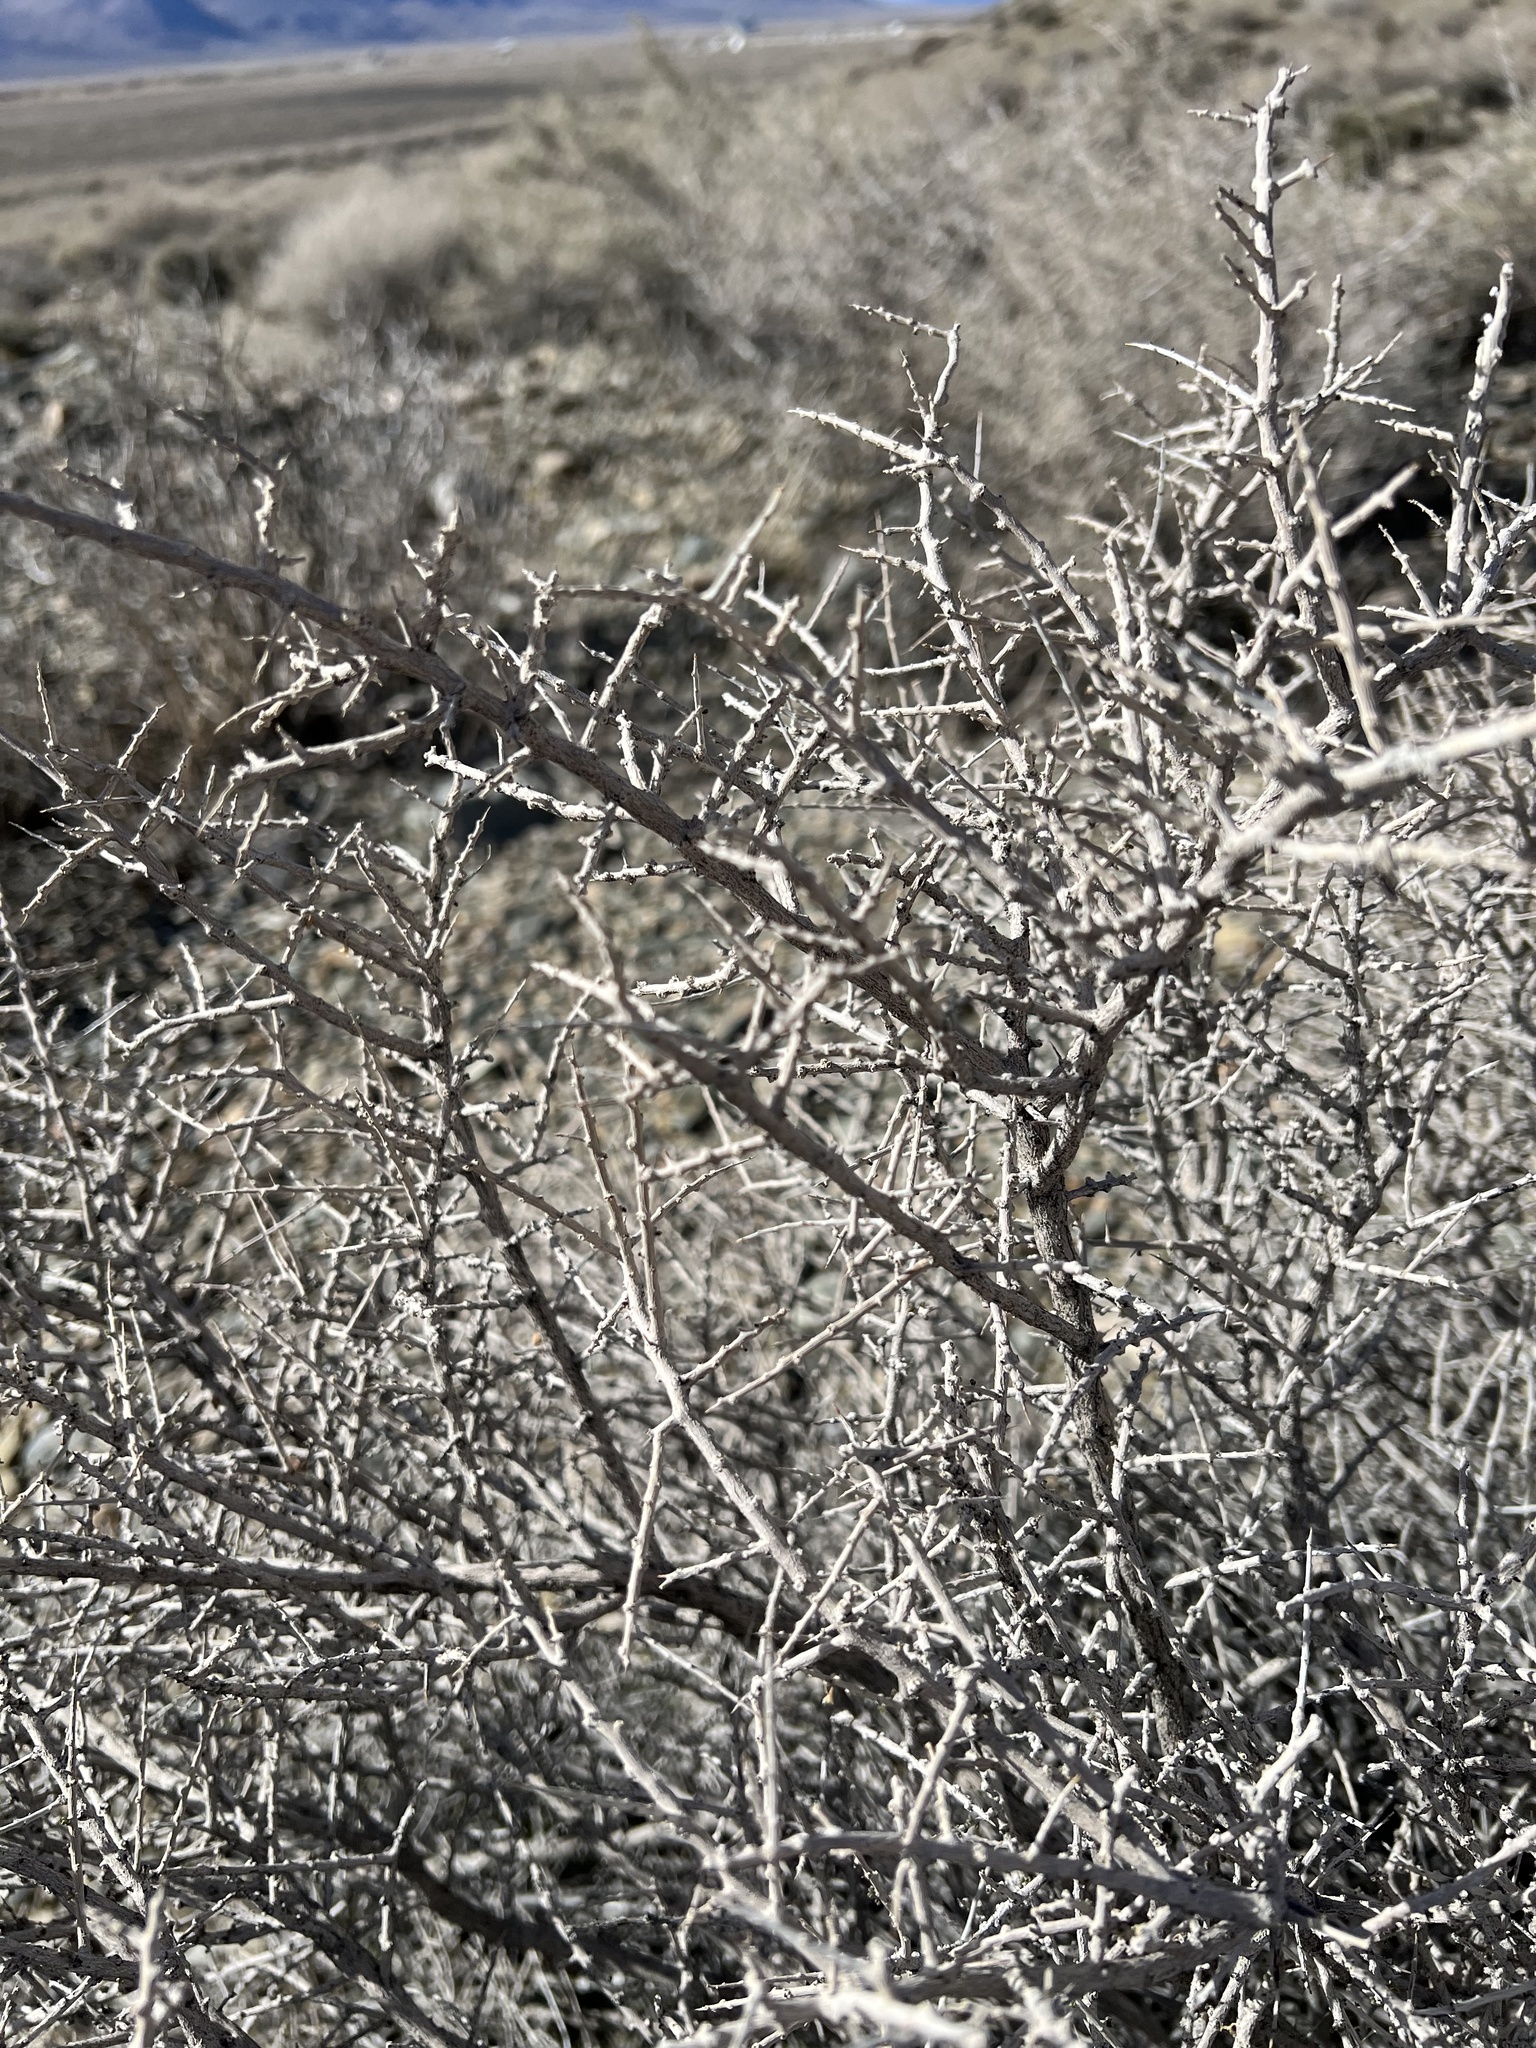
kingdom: Plantae
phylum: Tracheophyta
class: Magnoliopsida
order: Solanales
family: Solanaceae
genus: Lycium
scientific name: Lycium andersonii
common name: Water-jacket
